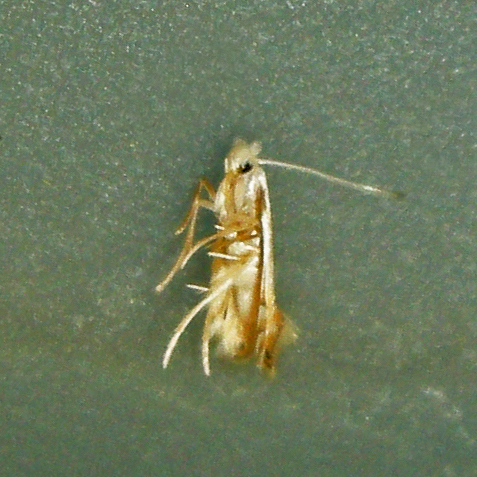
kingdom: Animalia
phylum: Arthropoda
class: Insecta
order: Lepidoptera
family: Gracillariidae
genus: Phyllonorycter
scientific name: Phyllonorycter lucidicostella
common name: Lesser maple leaf blotch miner moth
